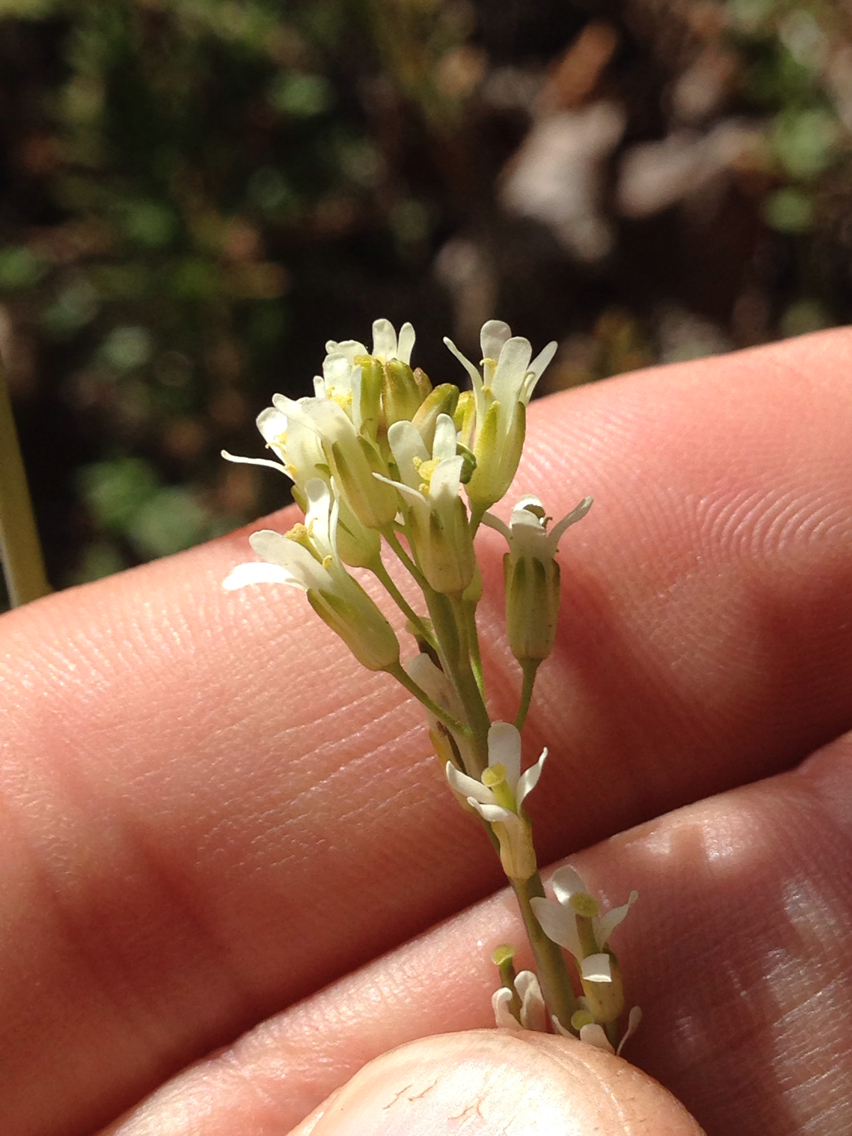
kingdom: Plantae
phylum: Tracheophyta
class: Magnoliopsida
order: Brassicales
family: Brassicaceae
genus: Turritis
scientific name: Turritis glabra
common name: Tower rockcress
